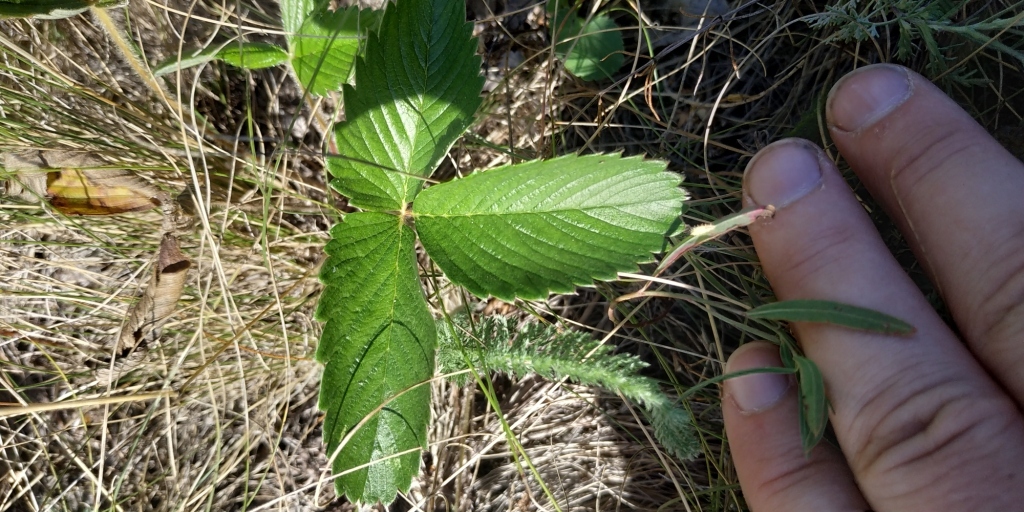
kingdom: Plantae
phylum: Tracheophyta
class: Magnoliopsida
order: Rosales
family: Rosaceae
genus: Fragaria
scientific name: Fragaria viridis
